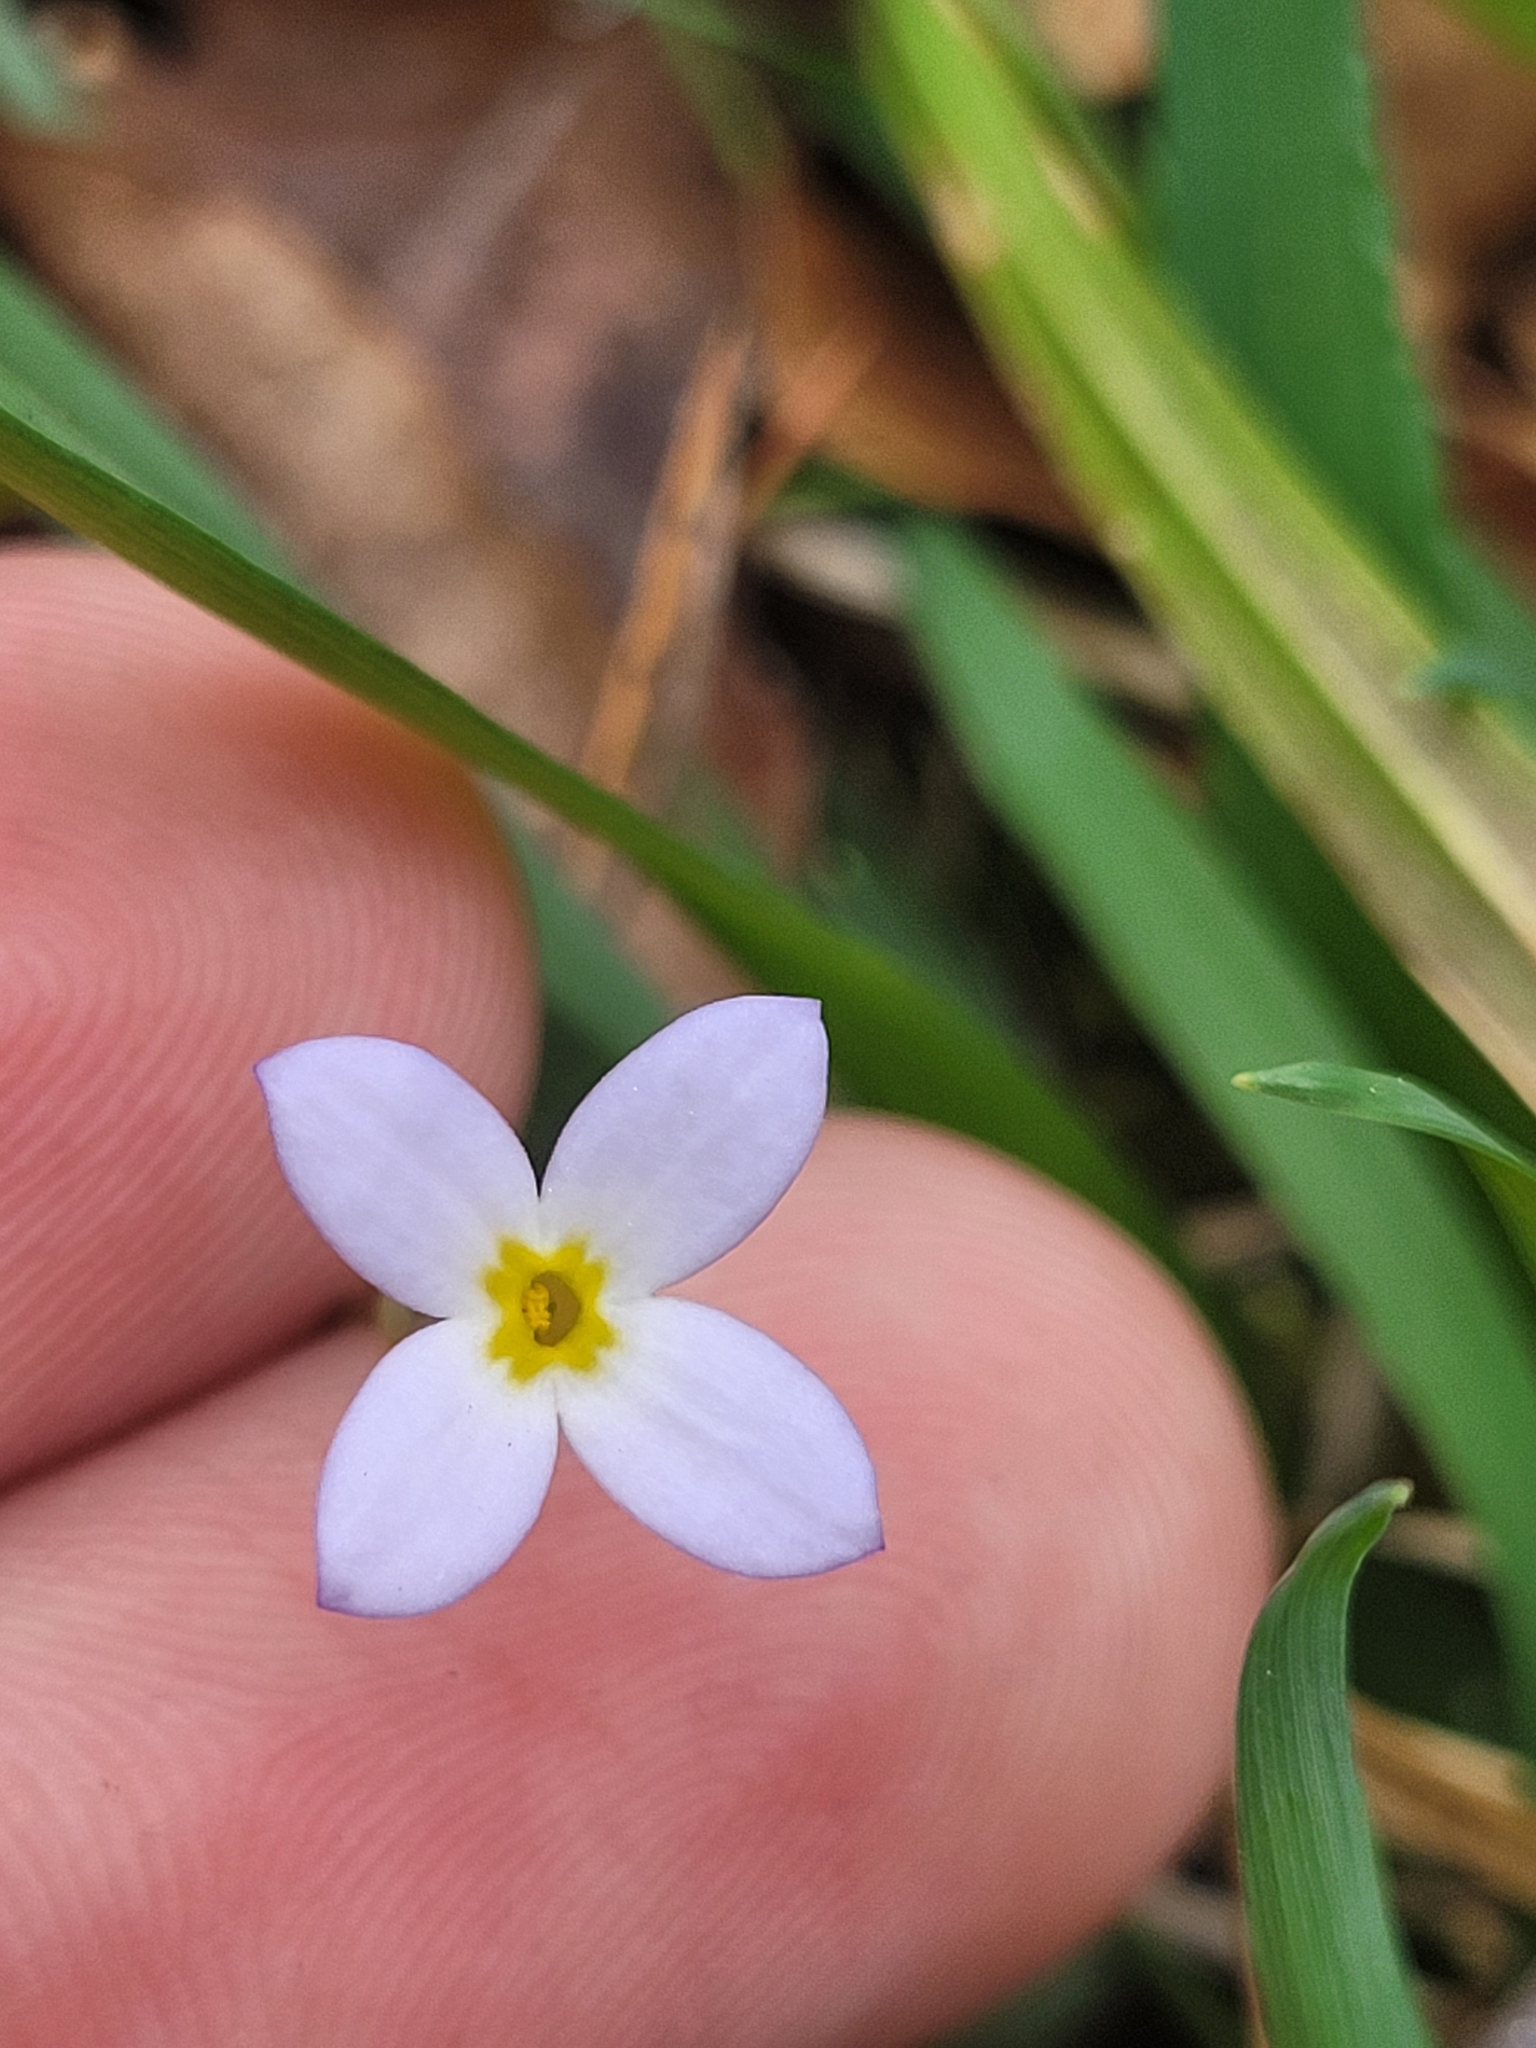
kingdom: Plantae
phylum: Tracheophyta
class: Magnoliopsida
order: Gentianales
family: Rubiaceae
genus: Houstonia
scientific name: Houstonia caerulea
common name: Bluets
